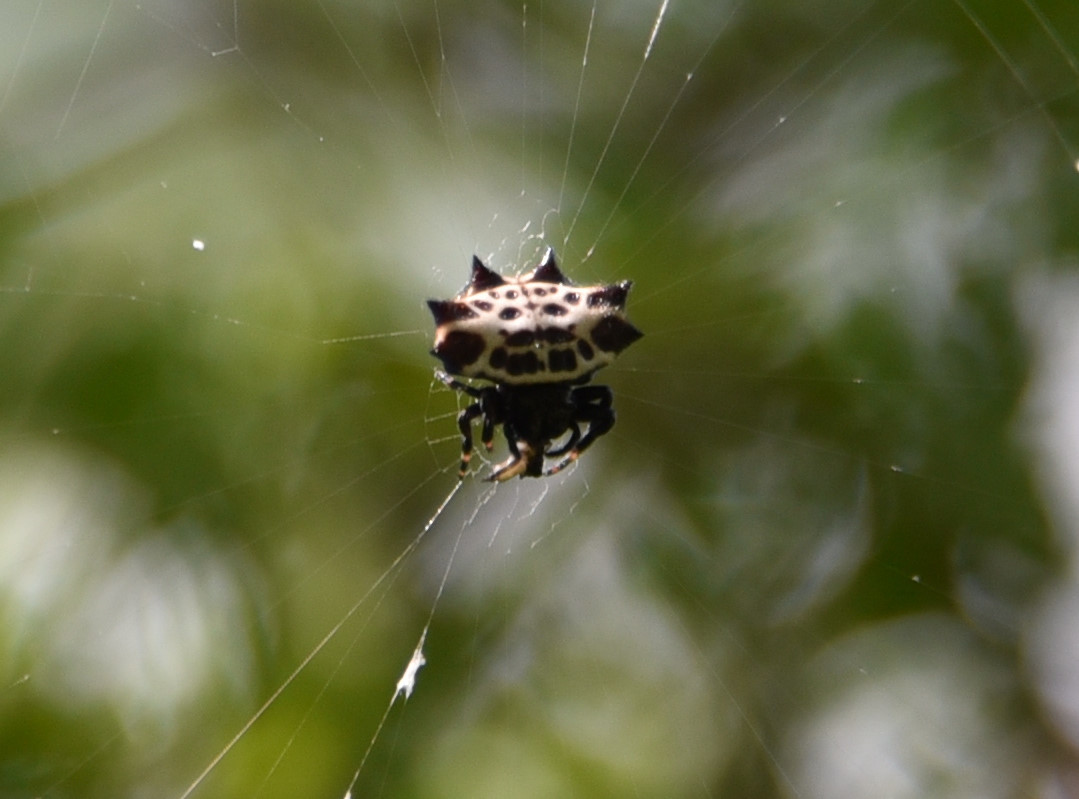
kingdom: Animalia
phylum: Arthropoda
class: Arachnida
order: Araneae
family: Araneidae
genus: Gasteracantha
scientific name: Gasteracantha cancriformis
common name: Orb weavers
